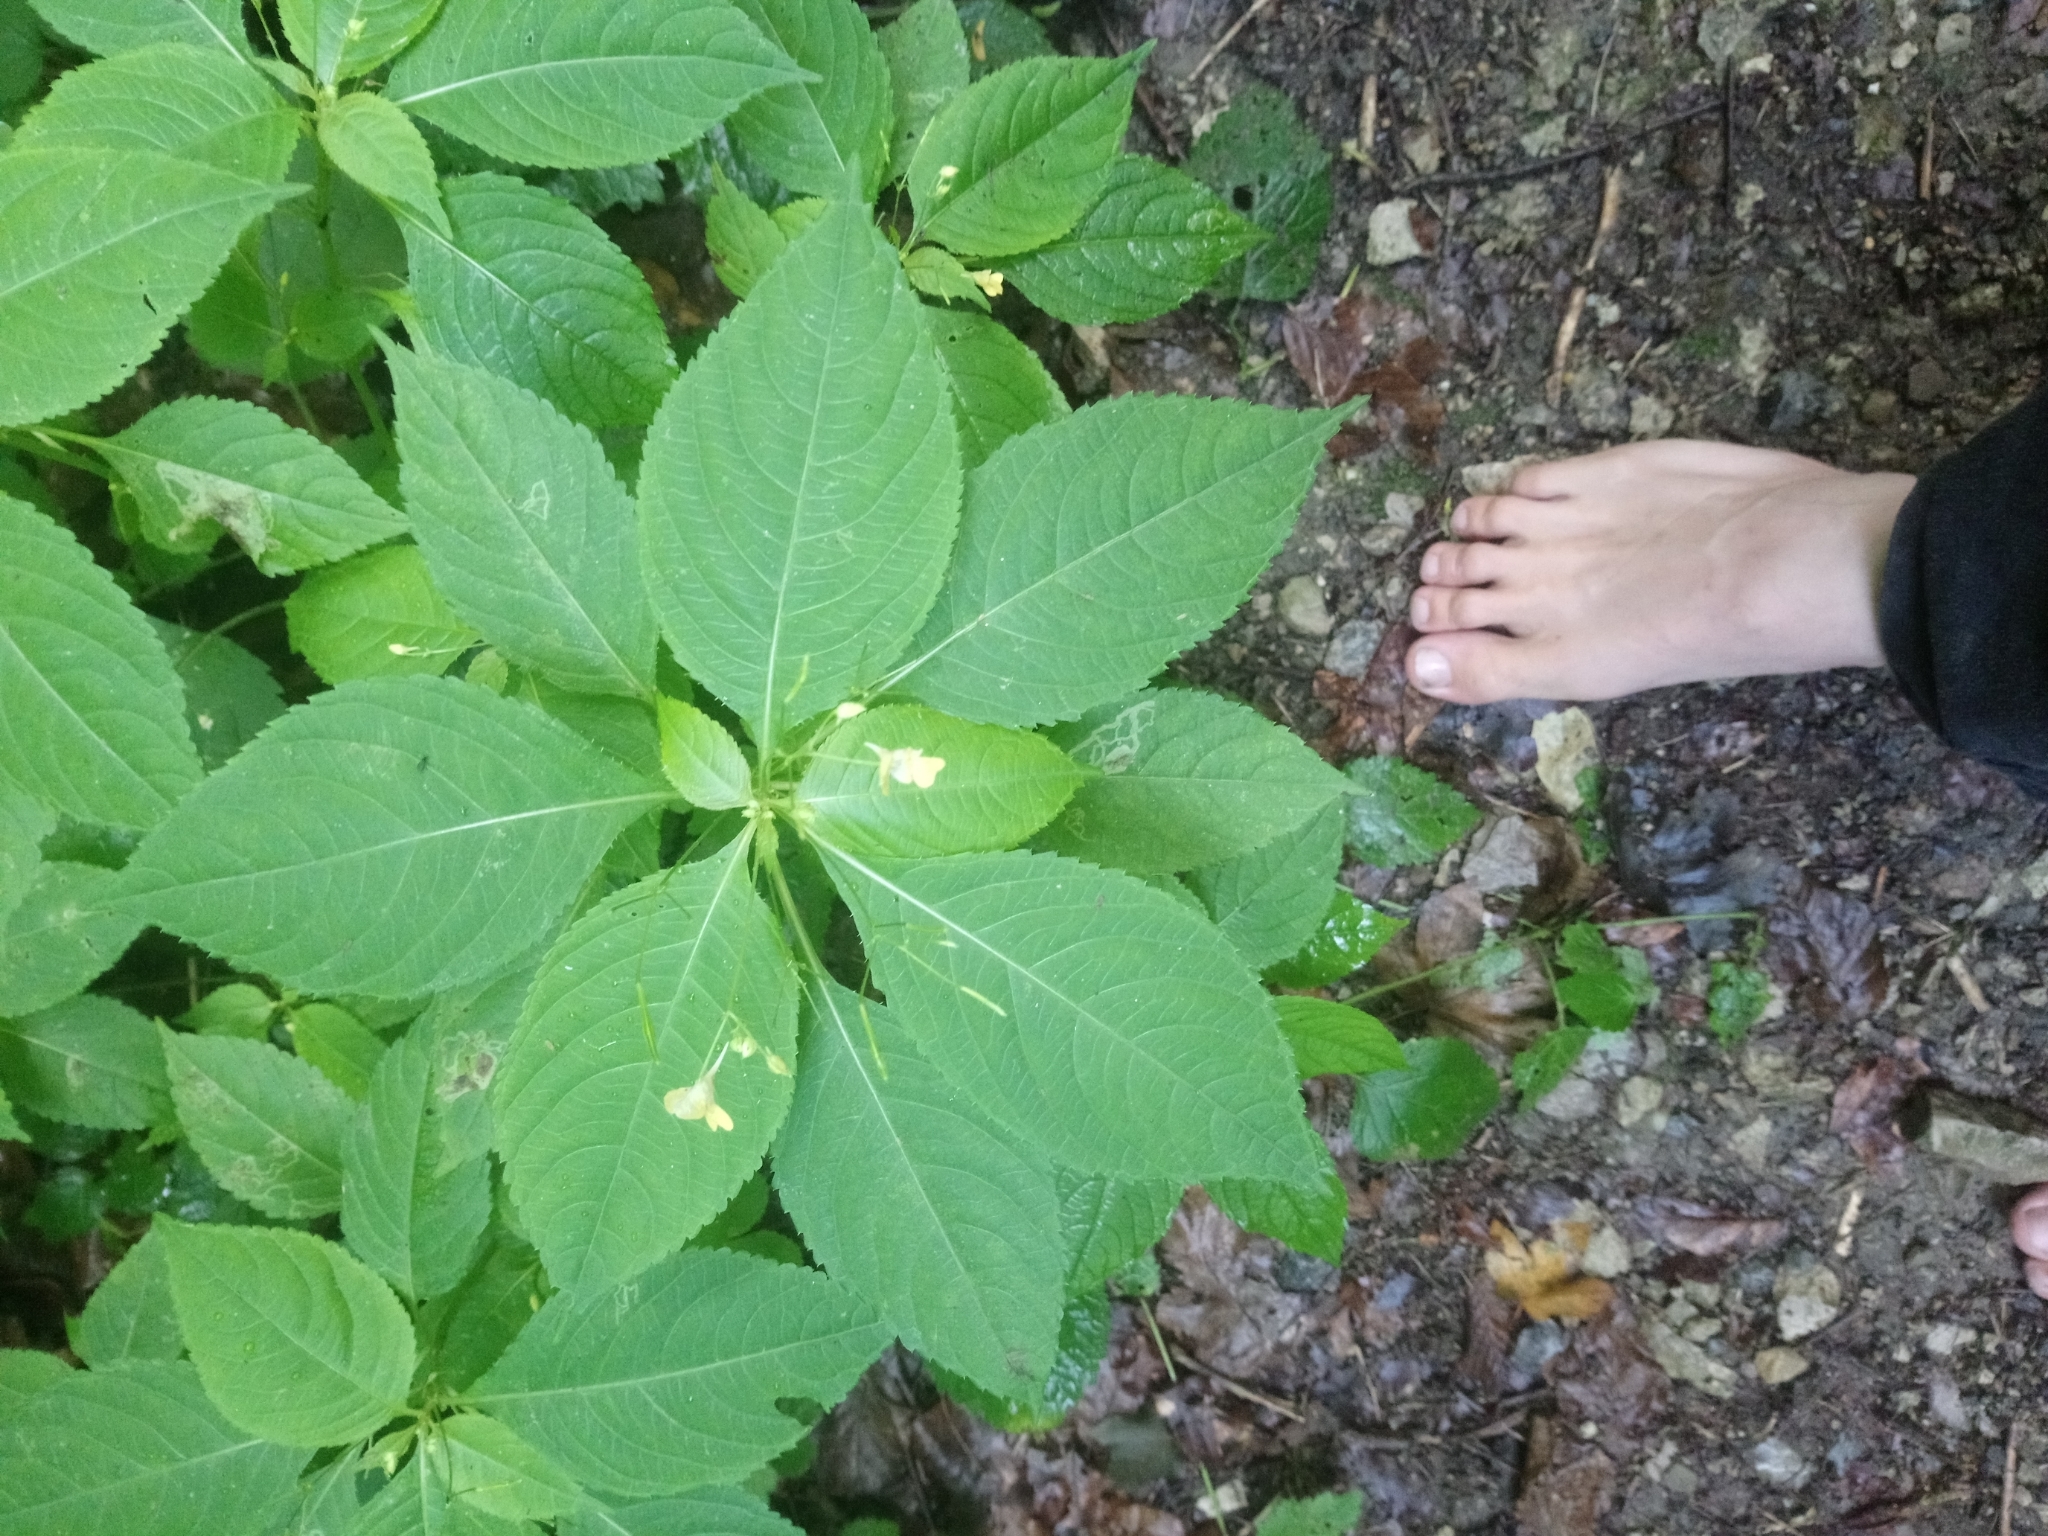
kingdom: Plantae
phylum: Tracheophyta
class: Magnoliopsida
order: Ericales
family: Balsaminaceae
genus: Impatiens
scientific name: Impatiens parviflora
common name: Small balsam
